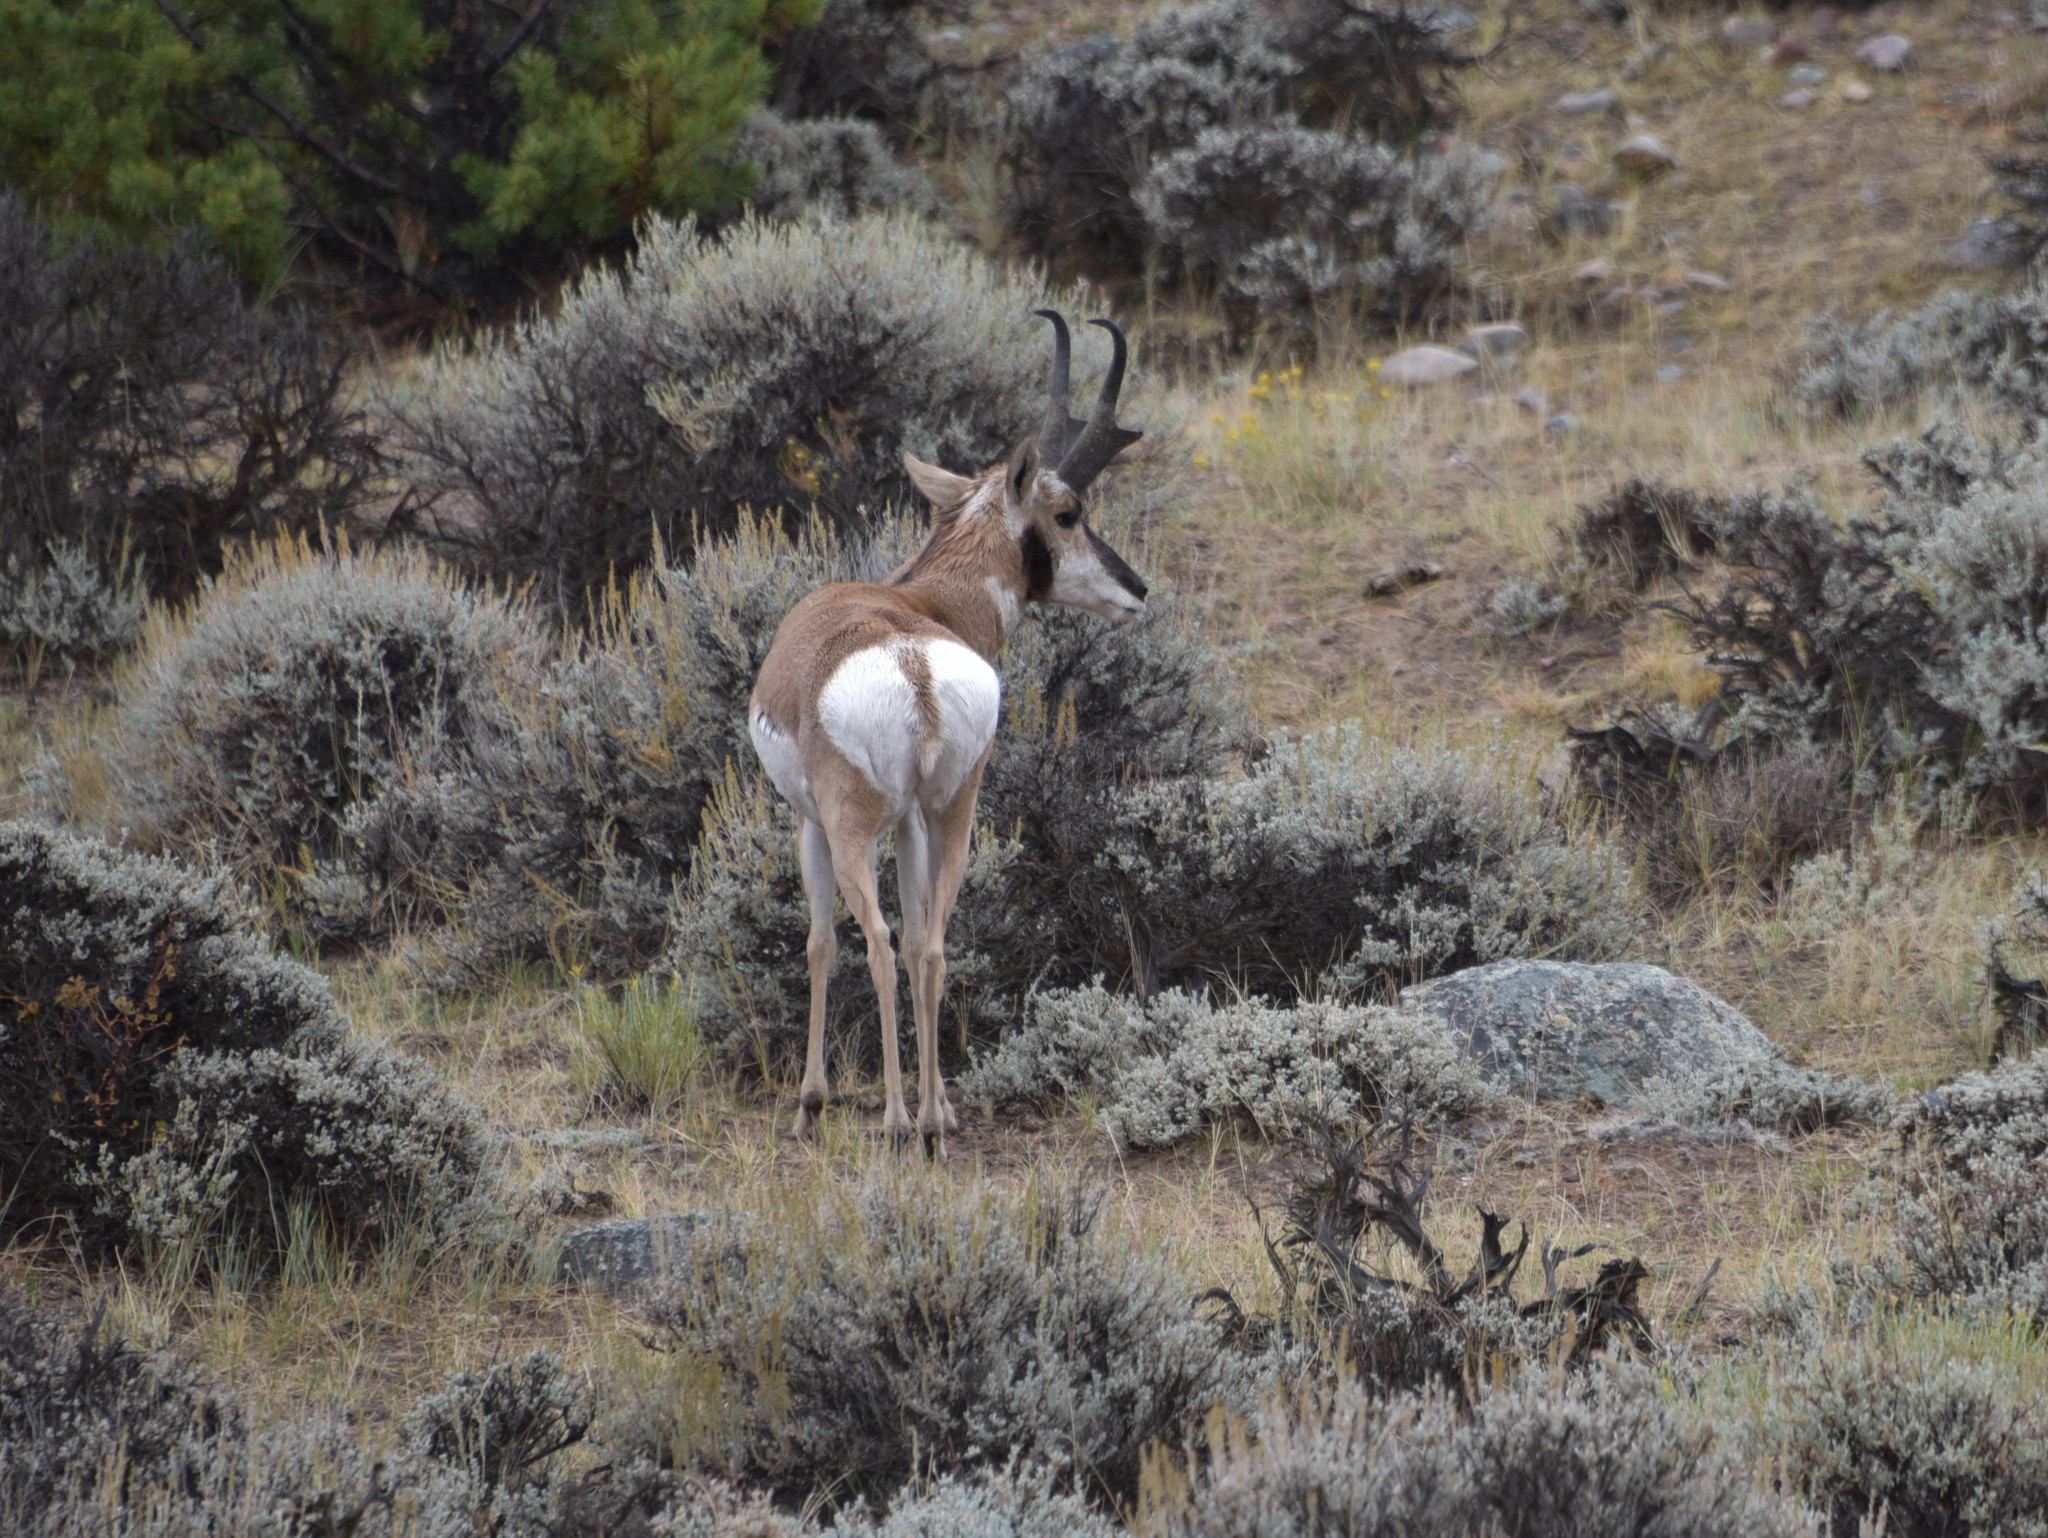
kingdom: Animalia
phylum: Chordata
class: Mammalia
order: Artiodactyla
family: Antilocapridae
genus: Antilocapra
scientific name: Antilocapra americana
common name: Pronghorn
